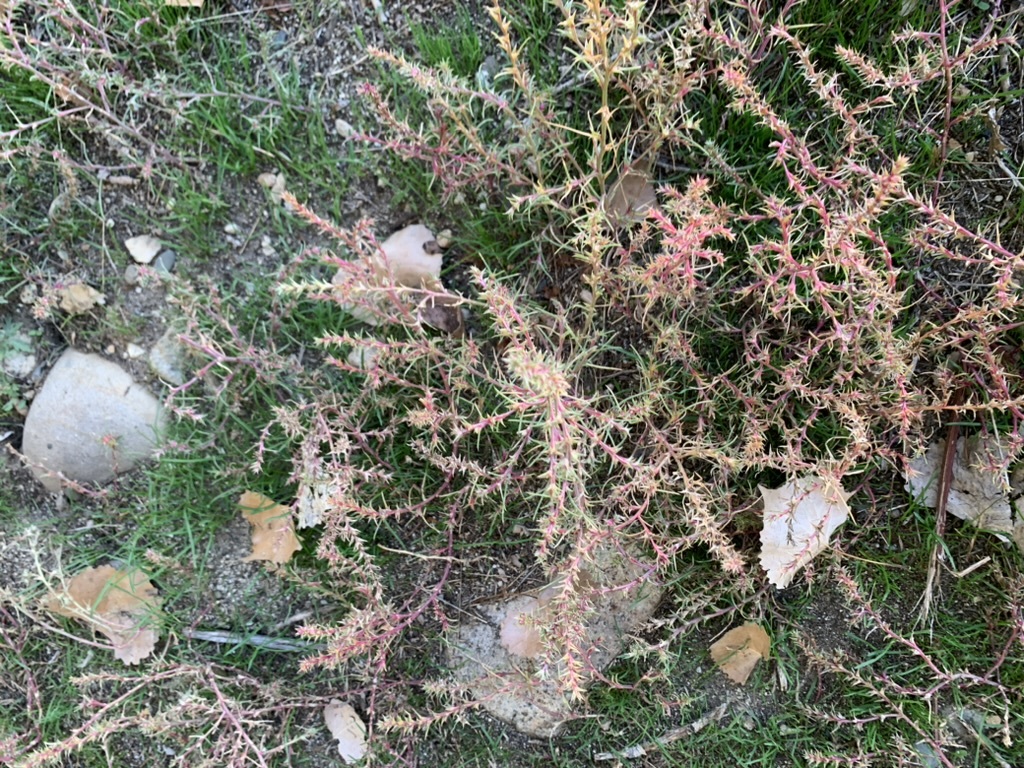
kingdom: Plantae
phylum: Tracheophyta
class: Magnoliopsida
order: Caryophyllales
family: Amaranthaceae
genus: Salsola
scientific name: Salsola tragus
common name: Prickly russian thistle
